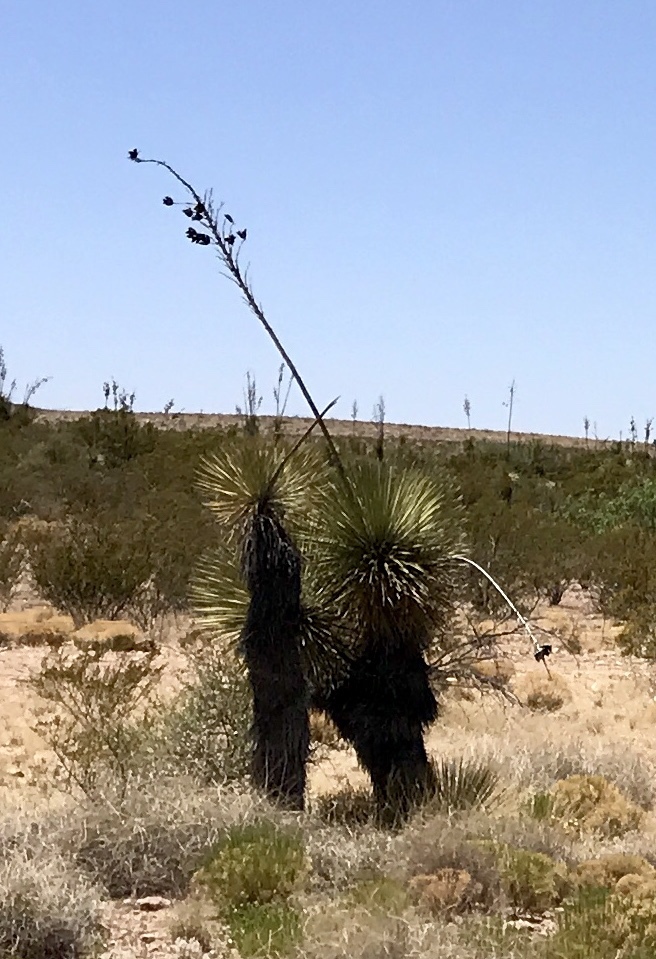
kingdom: Plantae
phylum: Tracheophyta
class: Liliopsida
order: Asparagales
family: Asparagaceae
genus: Yucca
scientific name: Yucca elata
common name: Palmella
